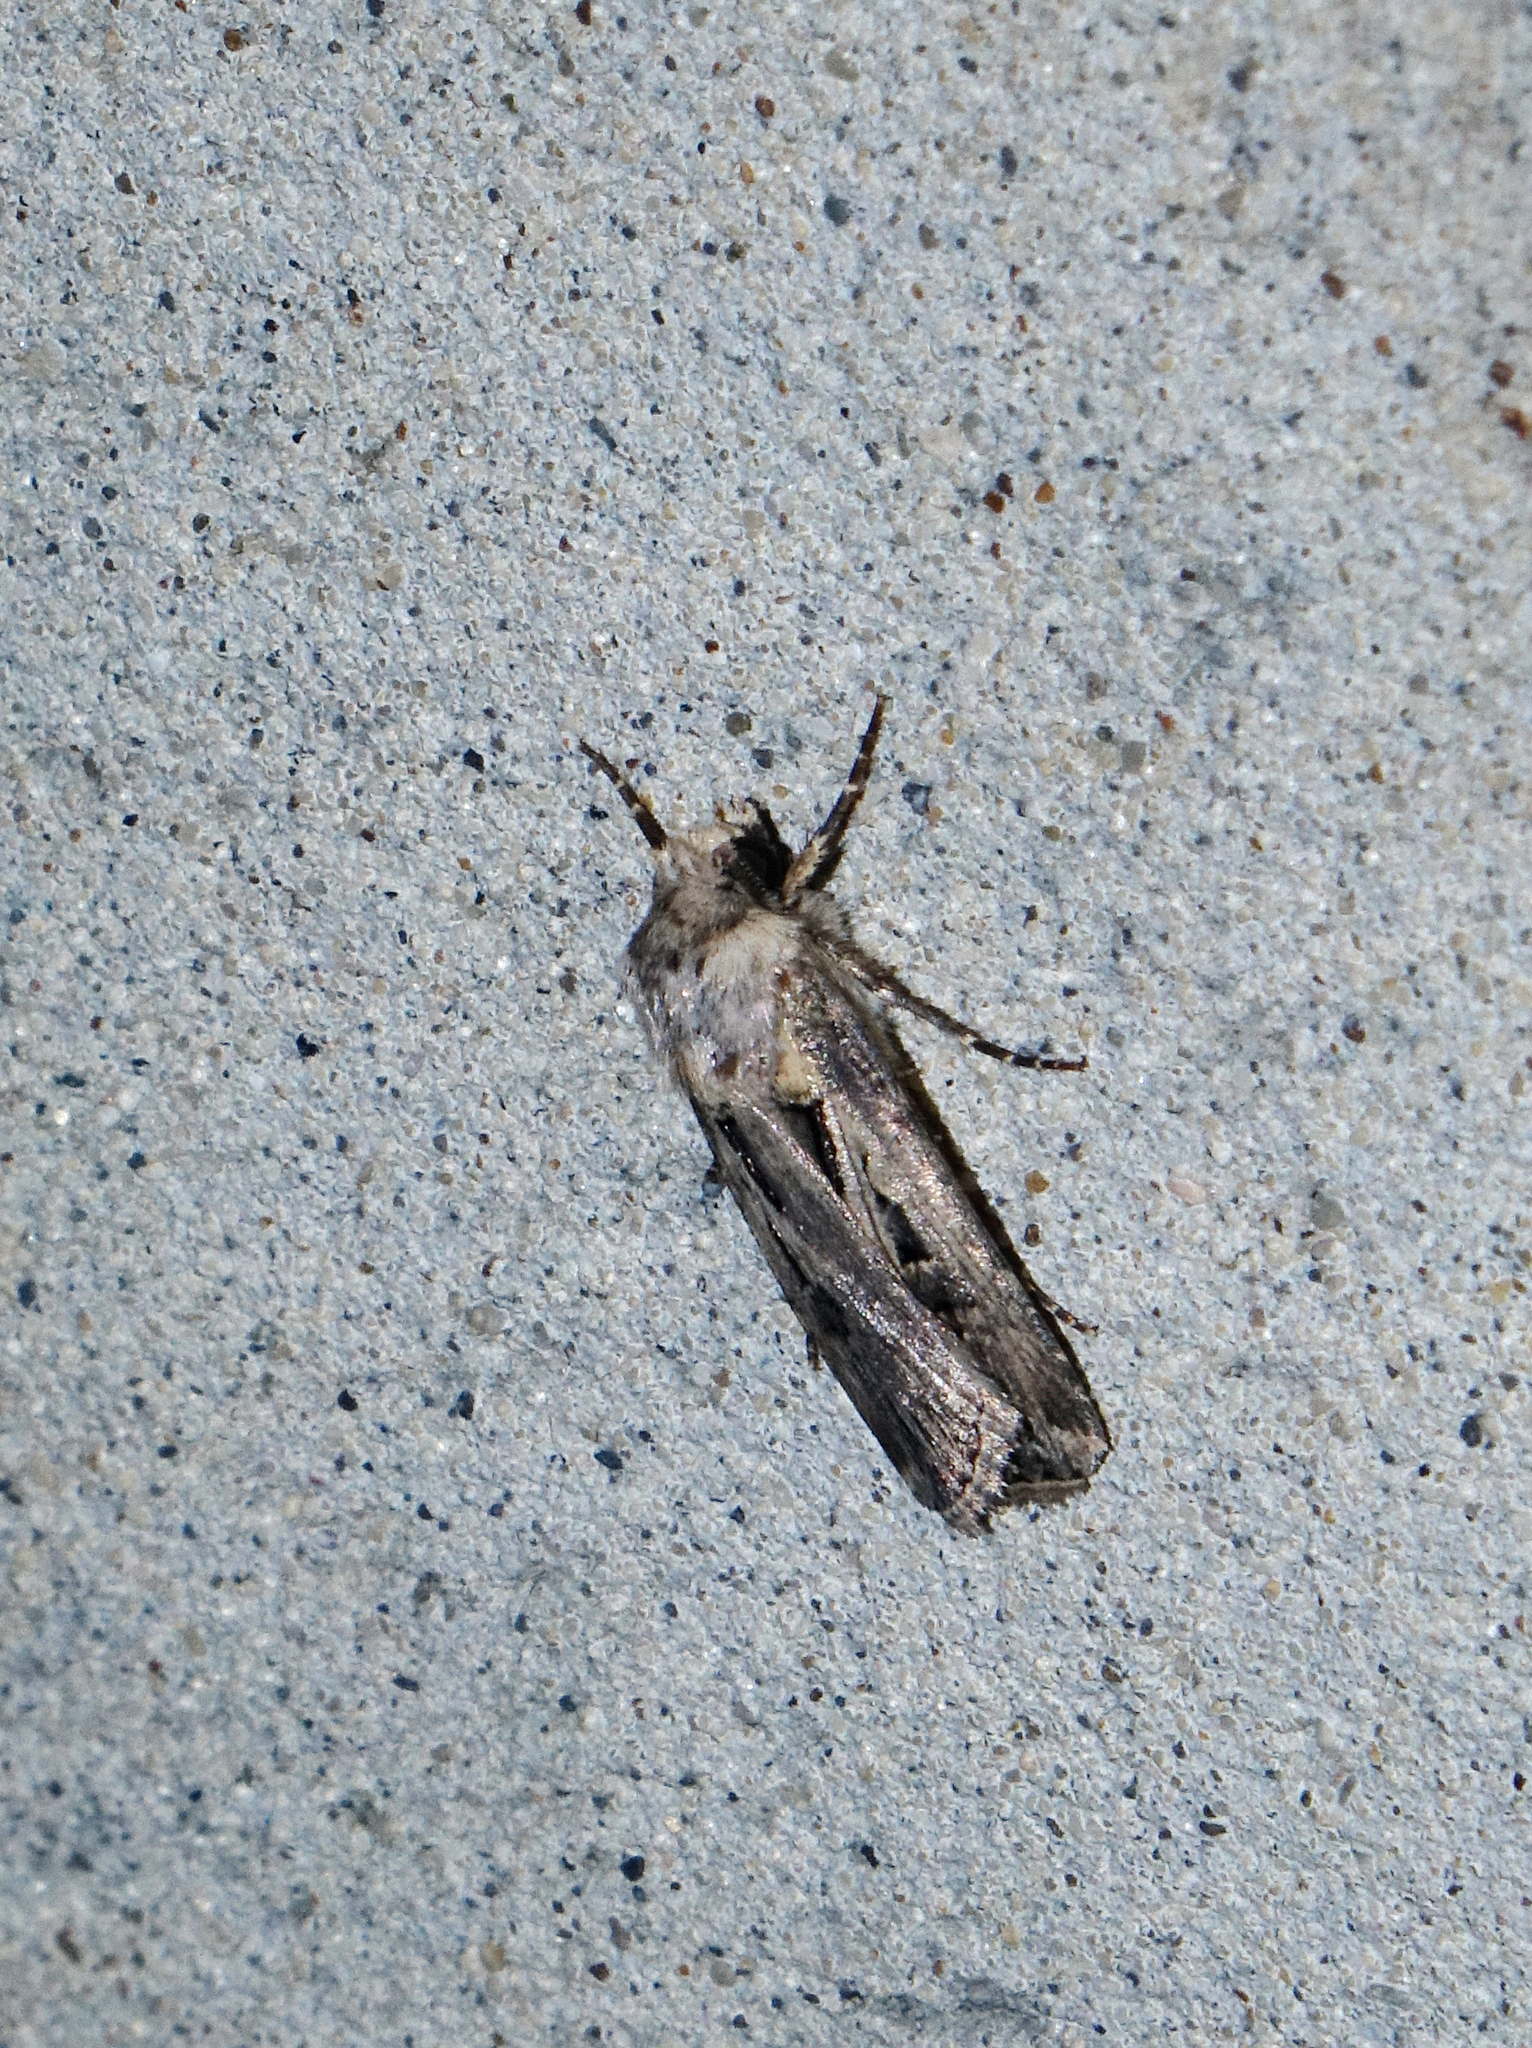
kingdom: Animalia
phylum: Arthropoda
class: Insecta
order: Lepidoptera
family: Noctuidae
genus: Agrotis
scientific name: Agrotis
